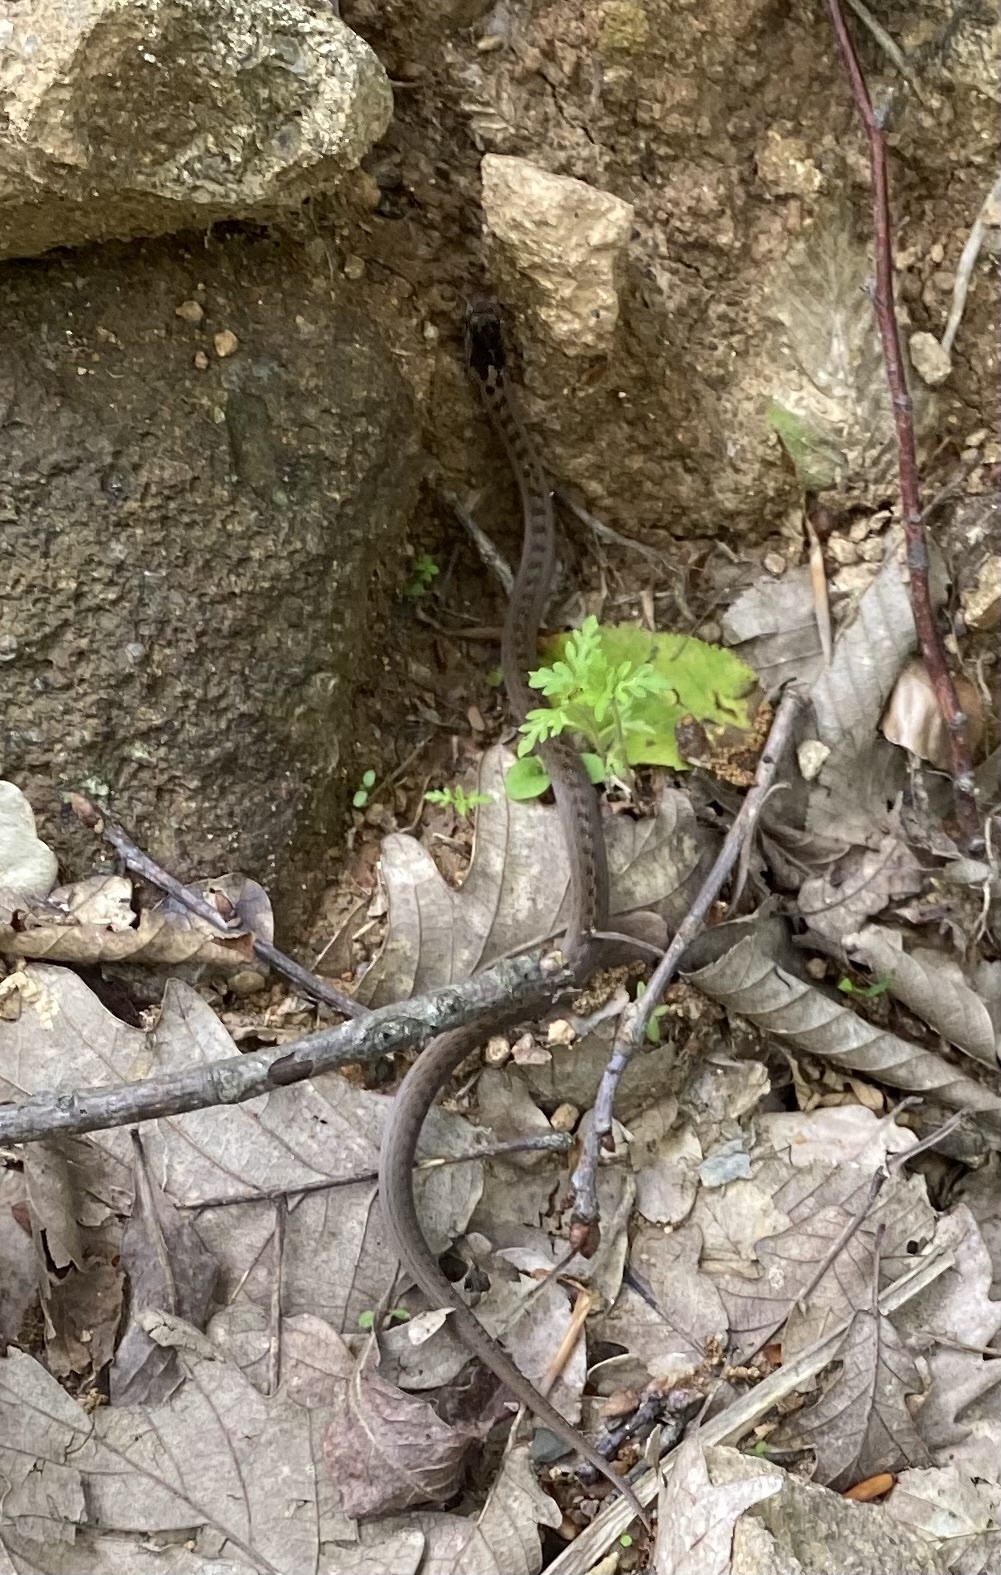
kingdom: Animalia
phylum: Chordata
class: Squamata
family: Colubridae
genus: Coronella
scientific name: Coronella austriaca
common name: Smooth snake
